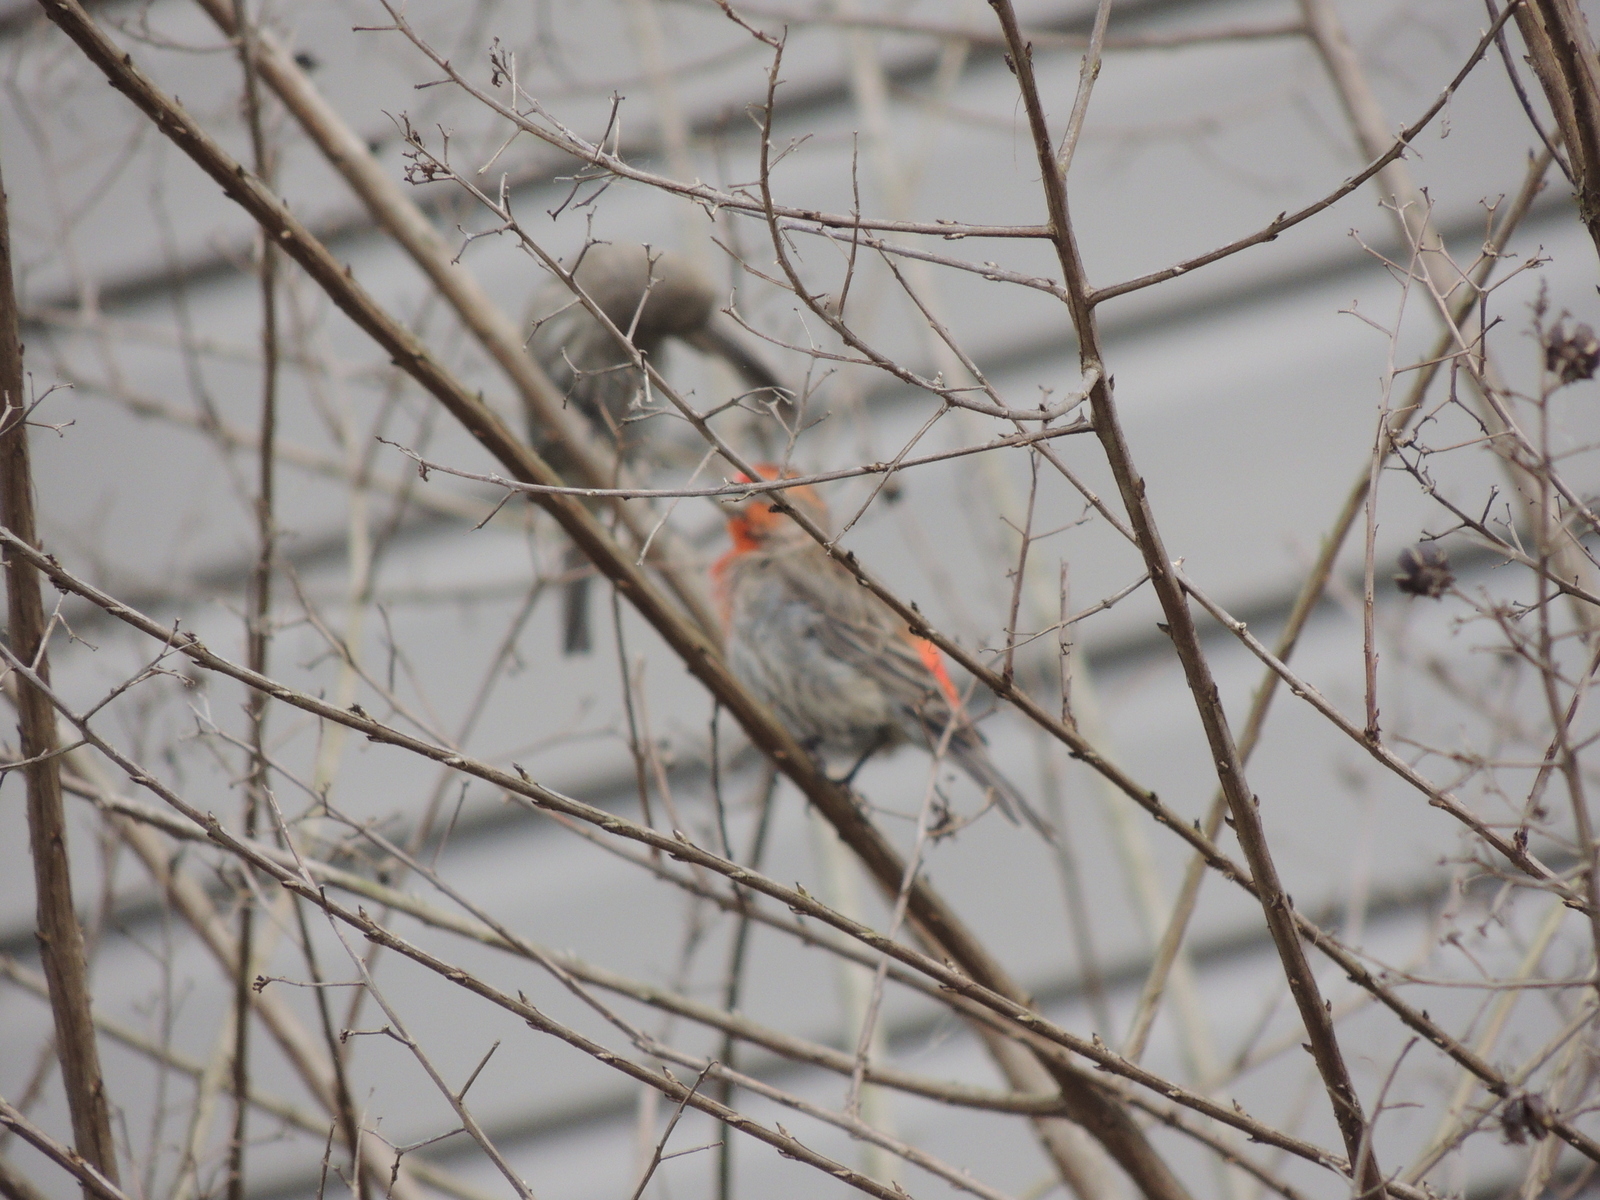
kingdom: Animalia
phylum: Chordata
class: Aves
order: Passeriformes
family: Fringillidae
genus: Haemorhous
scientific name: Haemorhous mexicanus
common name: House finch
